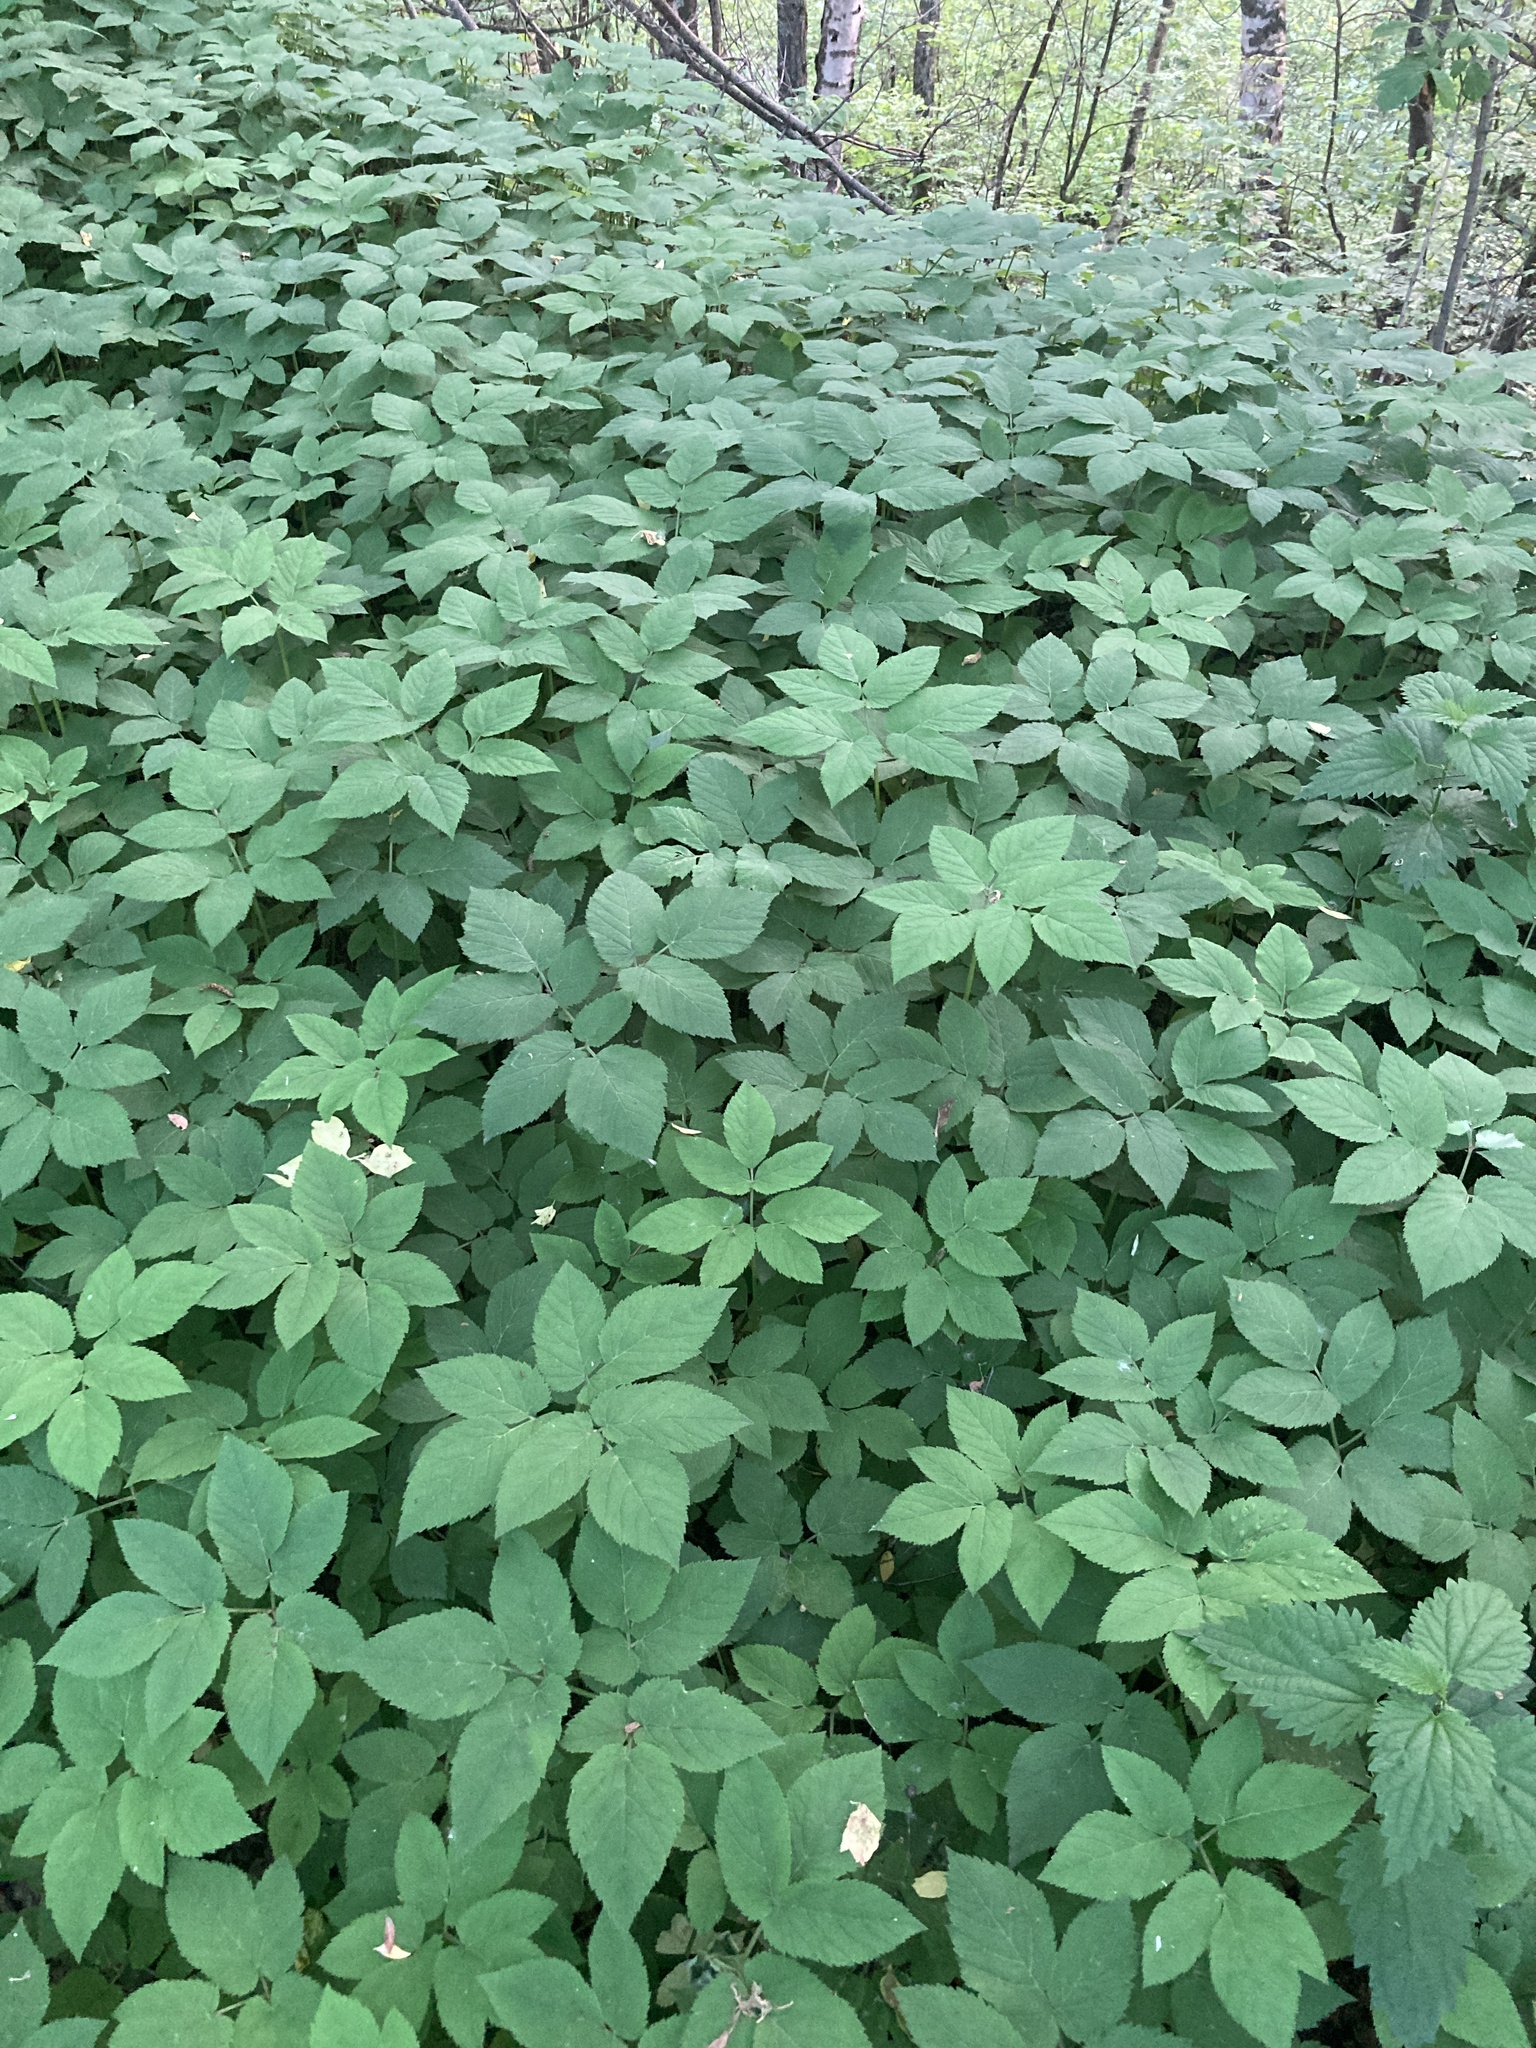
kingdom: Plantae
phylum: Tracheophyta
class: Magnoliopsida
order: Apiales
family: Apiaceae
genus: Aegopodium
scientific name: Aegopodium podagraria
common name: Ground-elder
